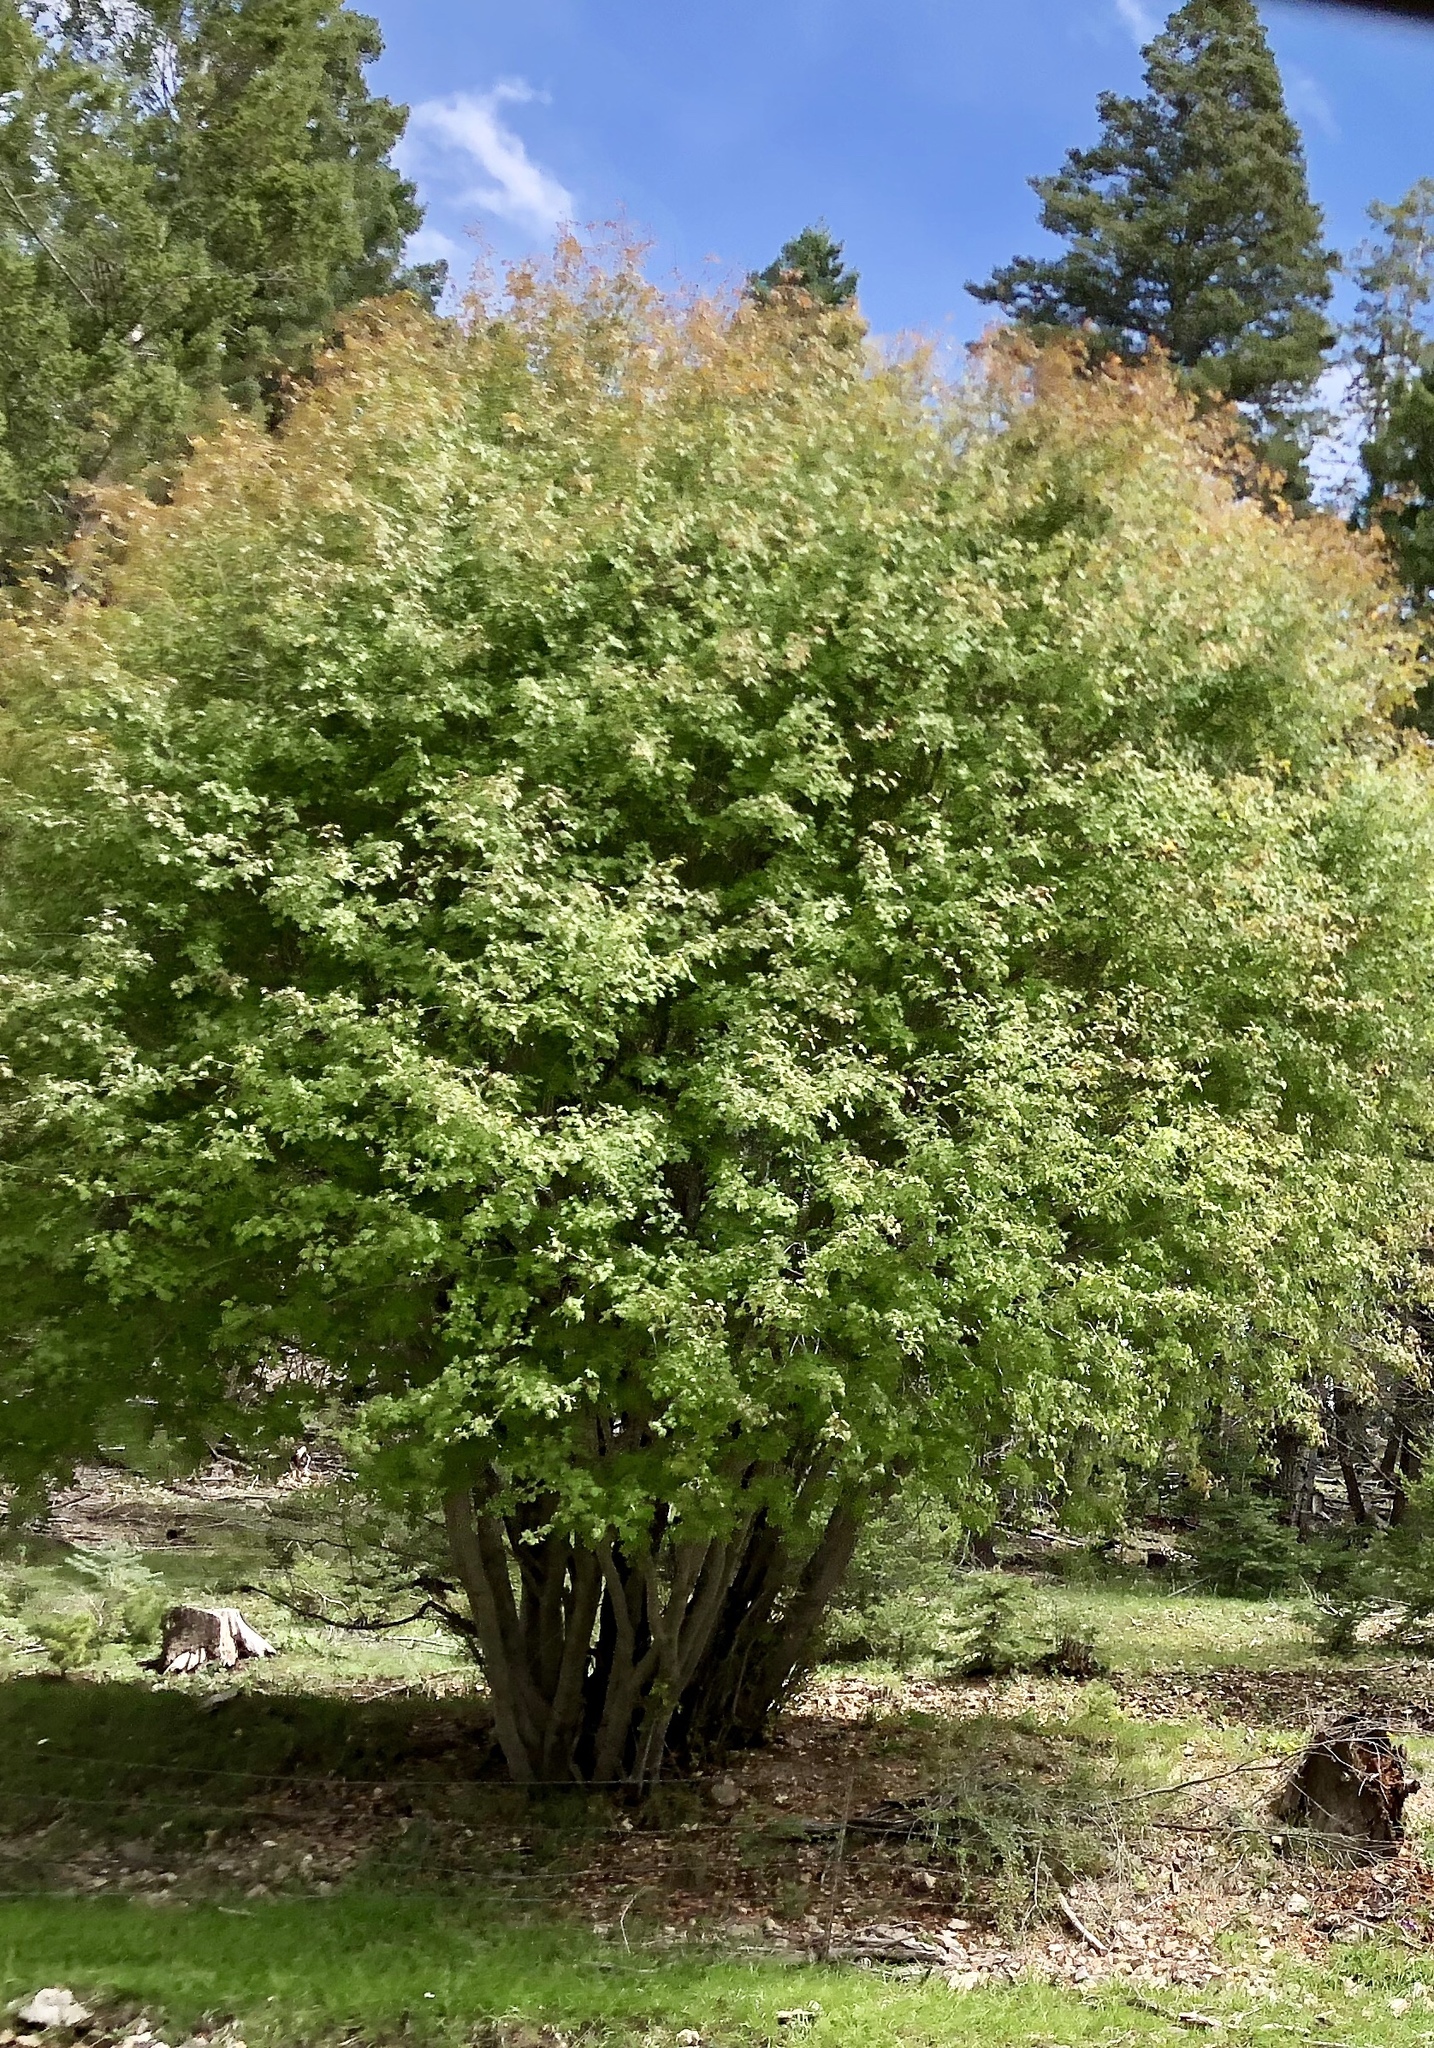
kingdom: Plantae
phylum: Tracheophyta
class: Magnoliopsida
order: Sapindales
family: Sapindaceae
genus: Acer
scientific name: Acer glabrum
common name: Rocky mountain maple
